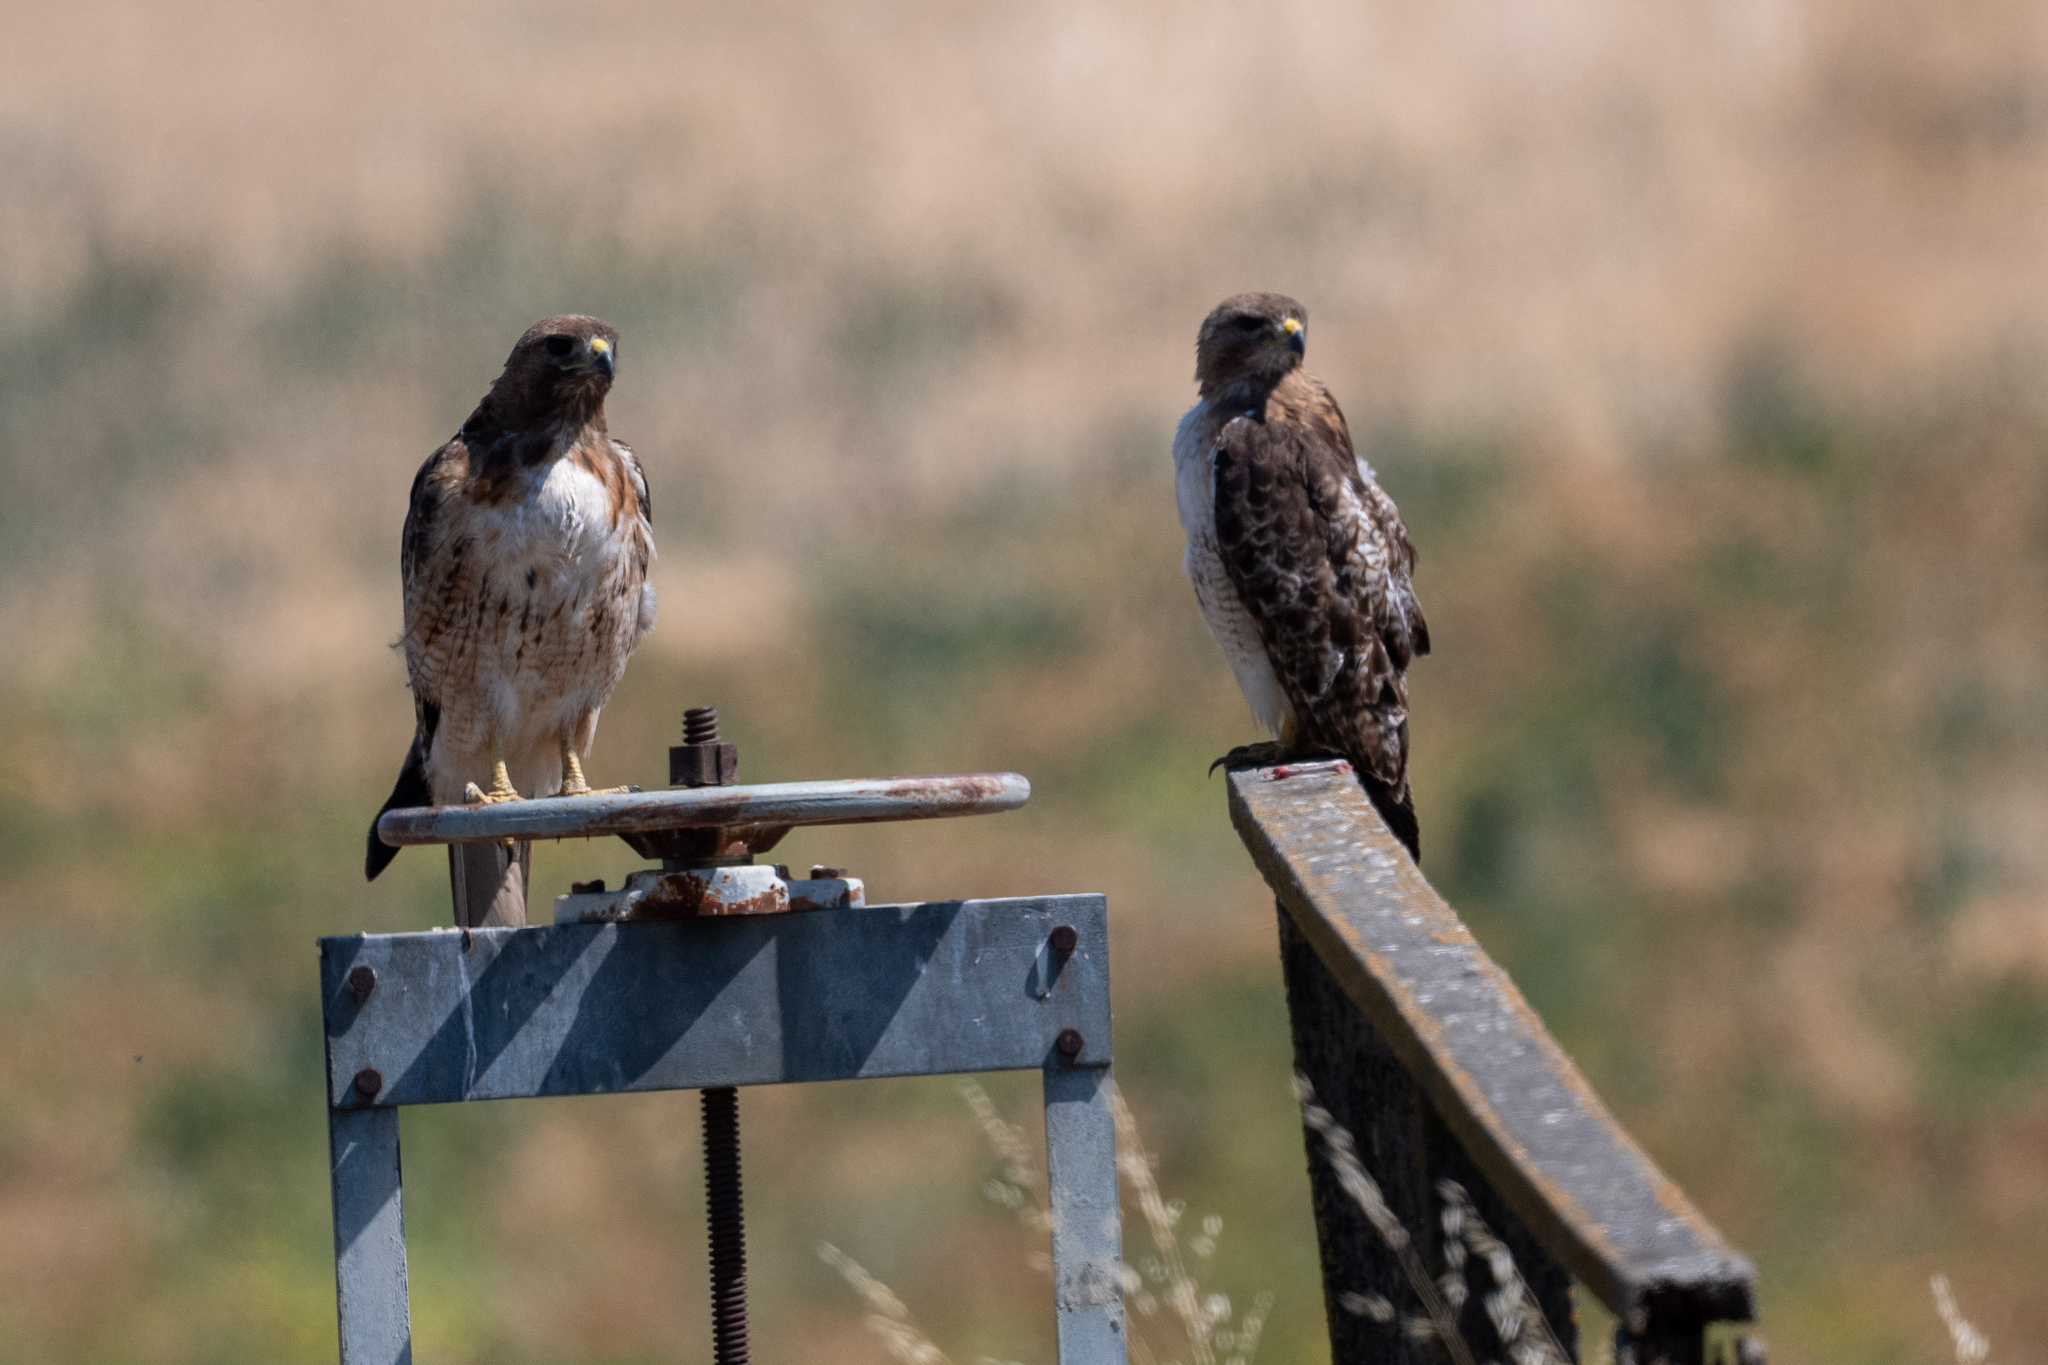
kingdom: Animalia
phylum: Chordata
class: Aves
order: Accipitriformes
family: Accipitridae
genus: Buteo
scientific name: Buteo jamaicensis
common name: Red-tailed hawk
